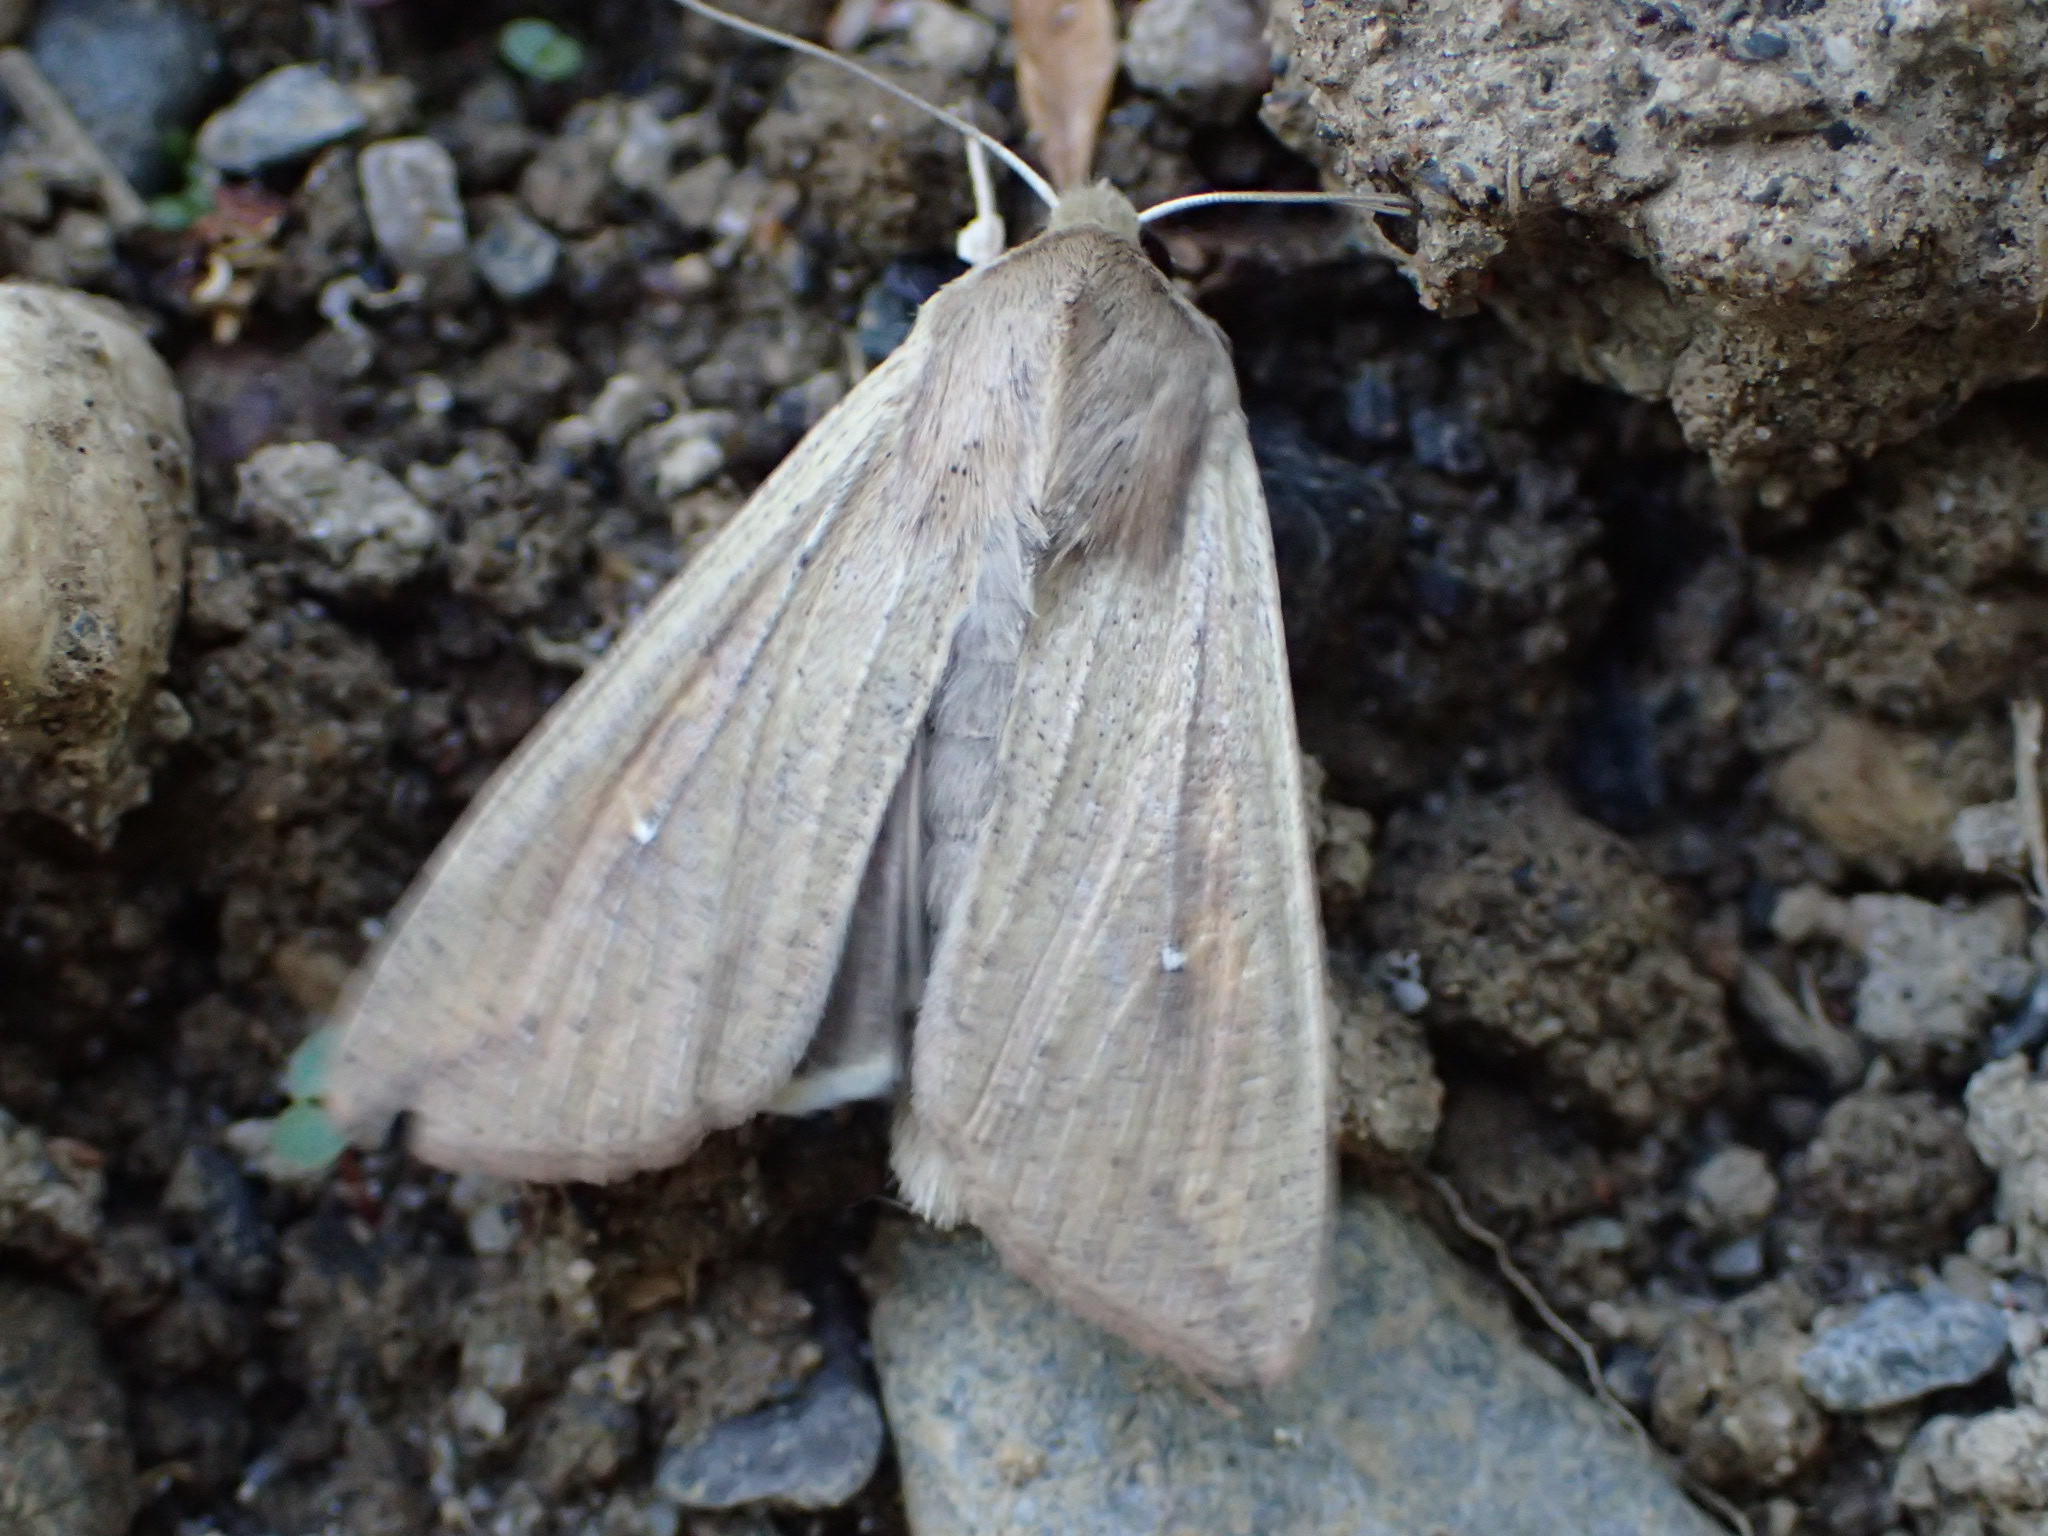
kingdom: Animalia
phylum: Arthropoda
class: Insecta
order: Lepidoptera
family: Noctuidae
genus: Mythimna
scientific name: Mythimna unipuncta
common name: White-speck
